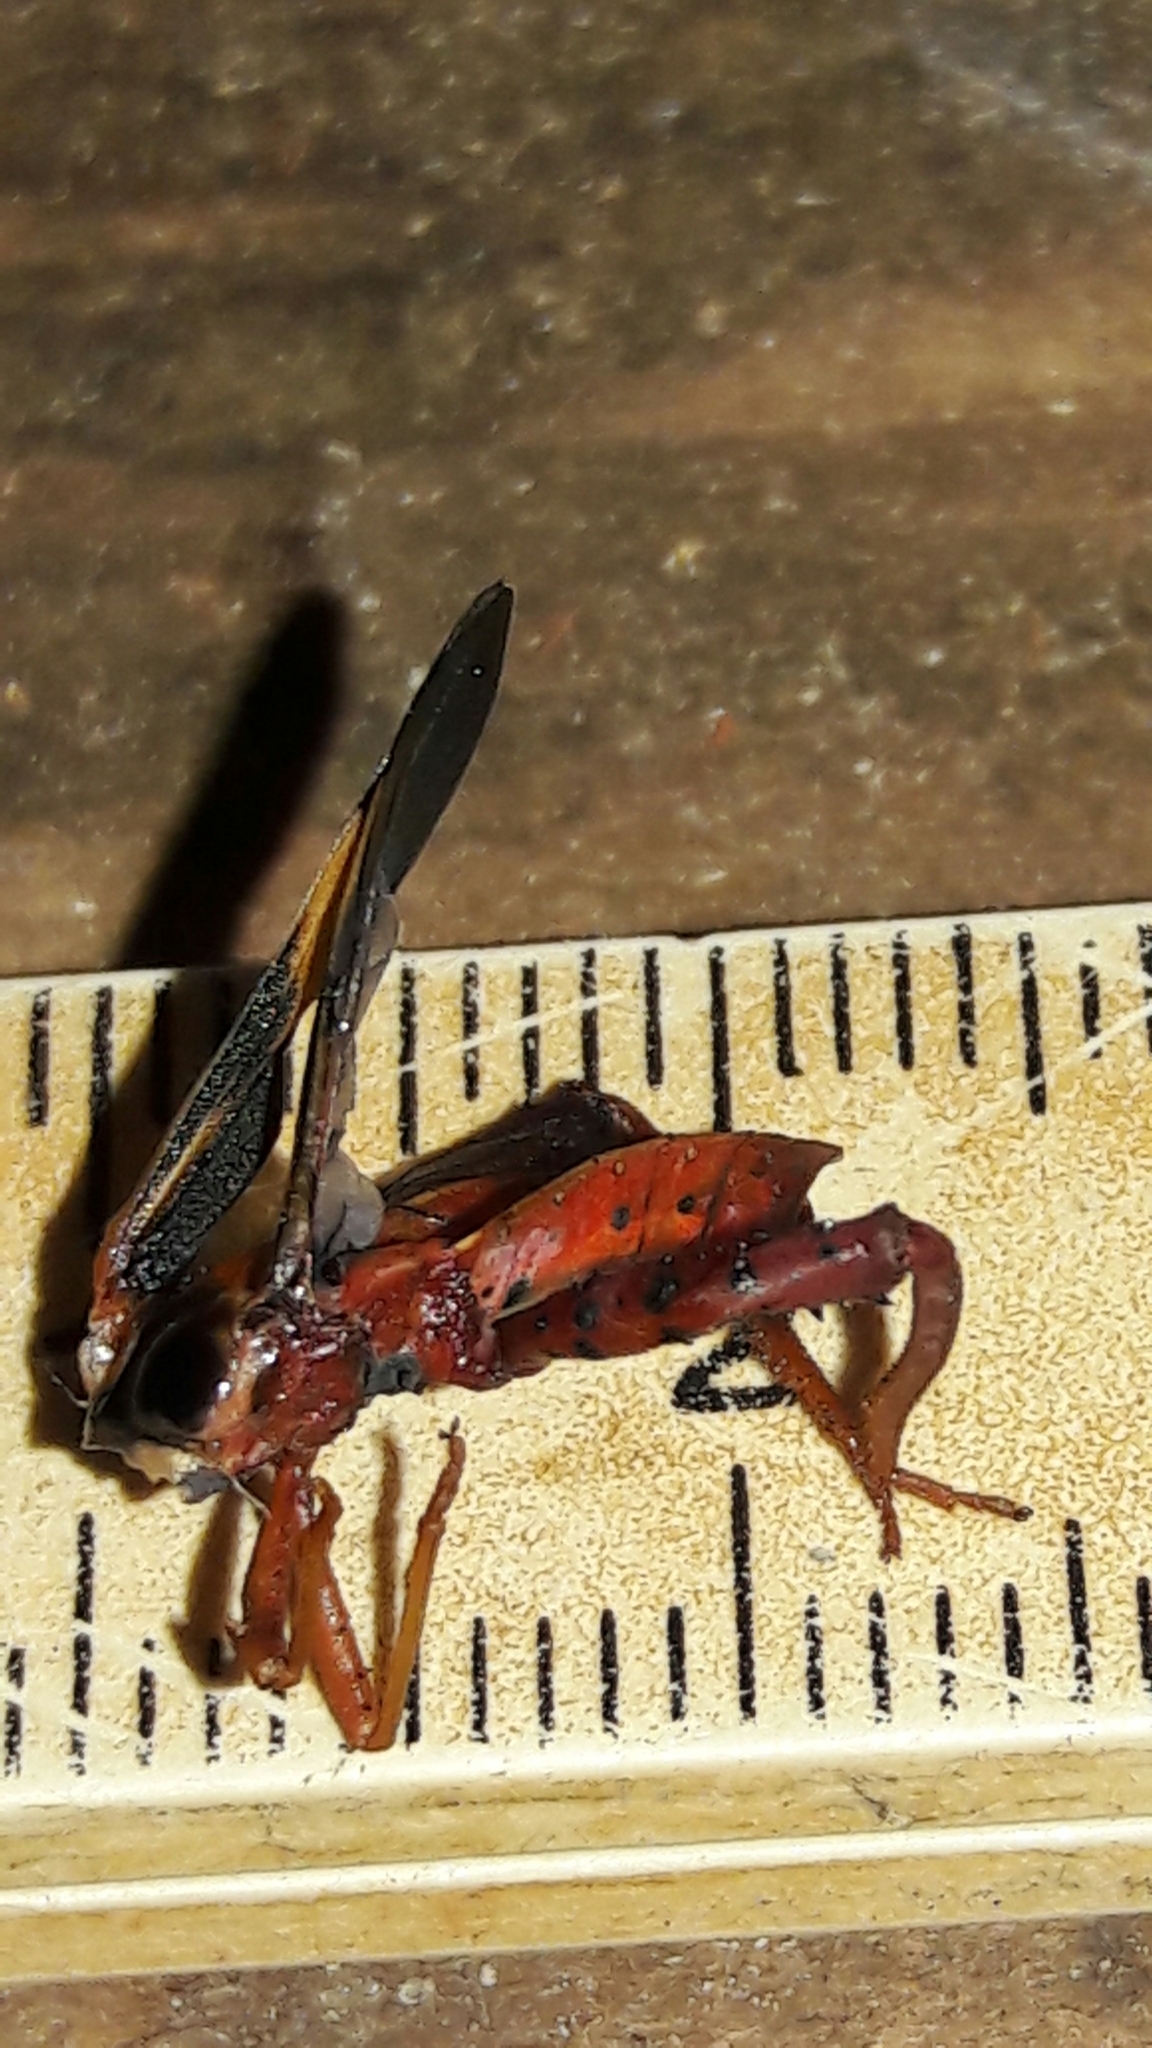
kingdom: Animalia
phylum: Arthropoda
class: Insecta
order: Hemiptera
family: Coreidae
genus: Crinocerus
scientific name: Crinocerus sanctus
